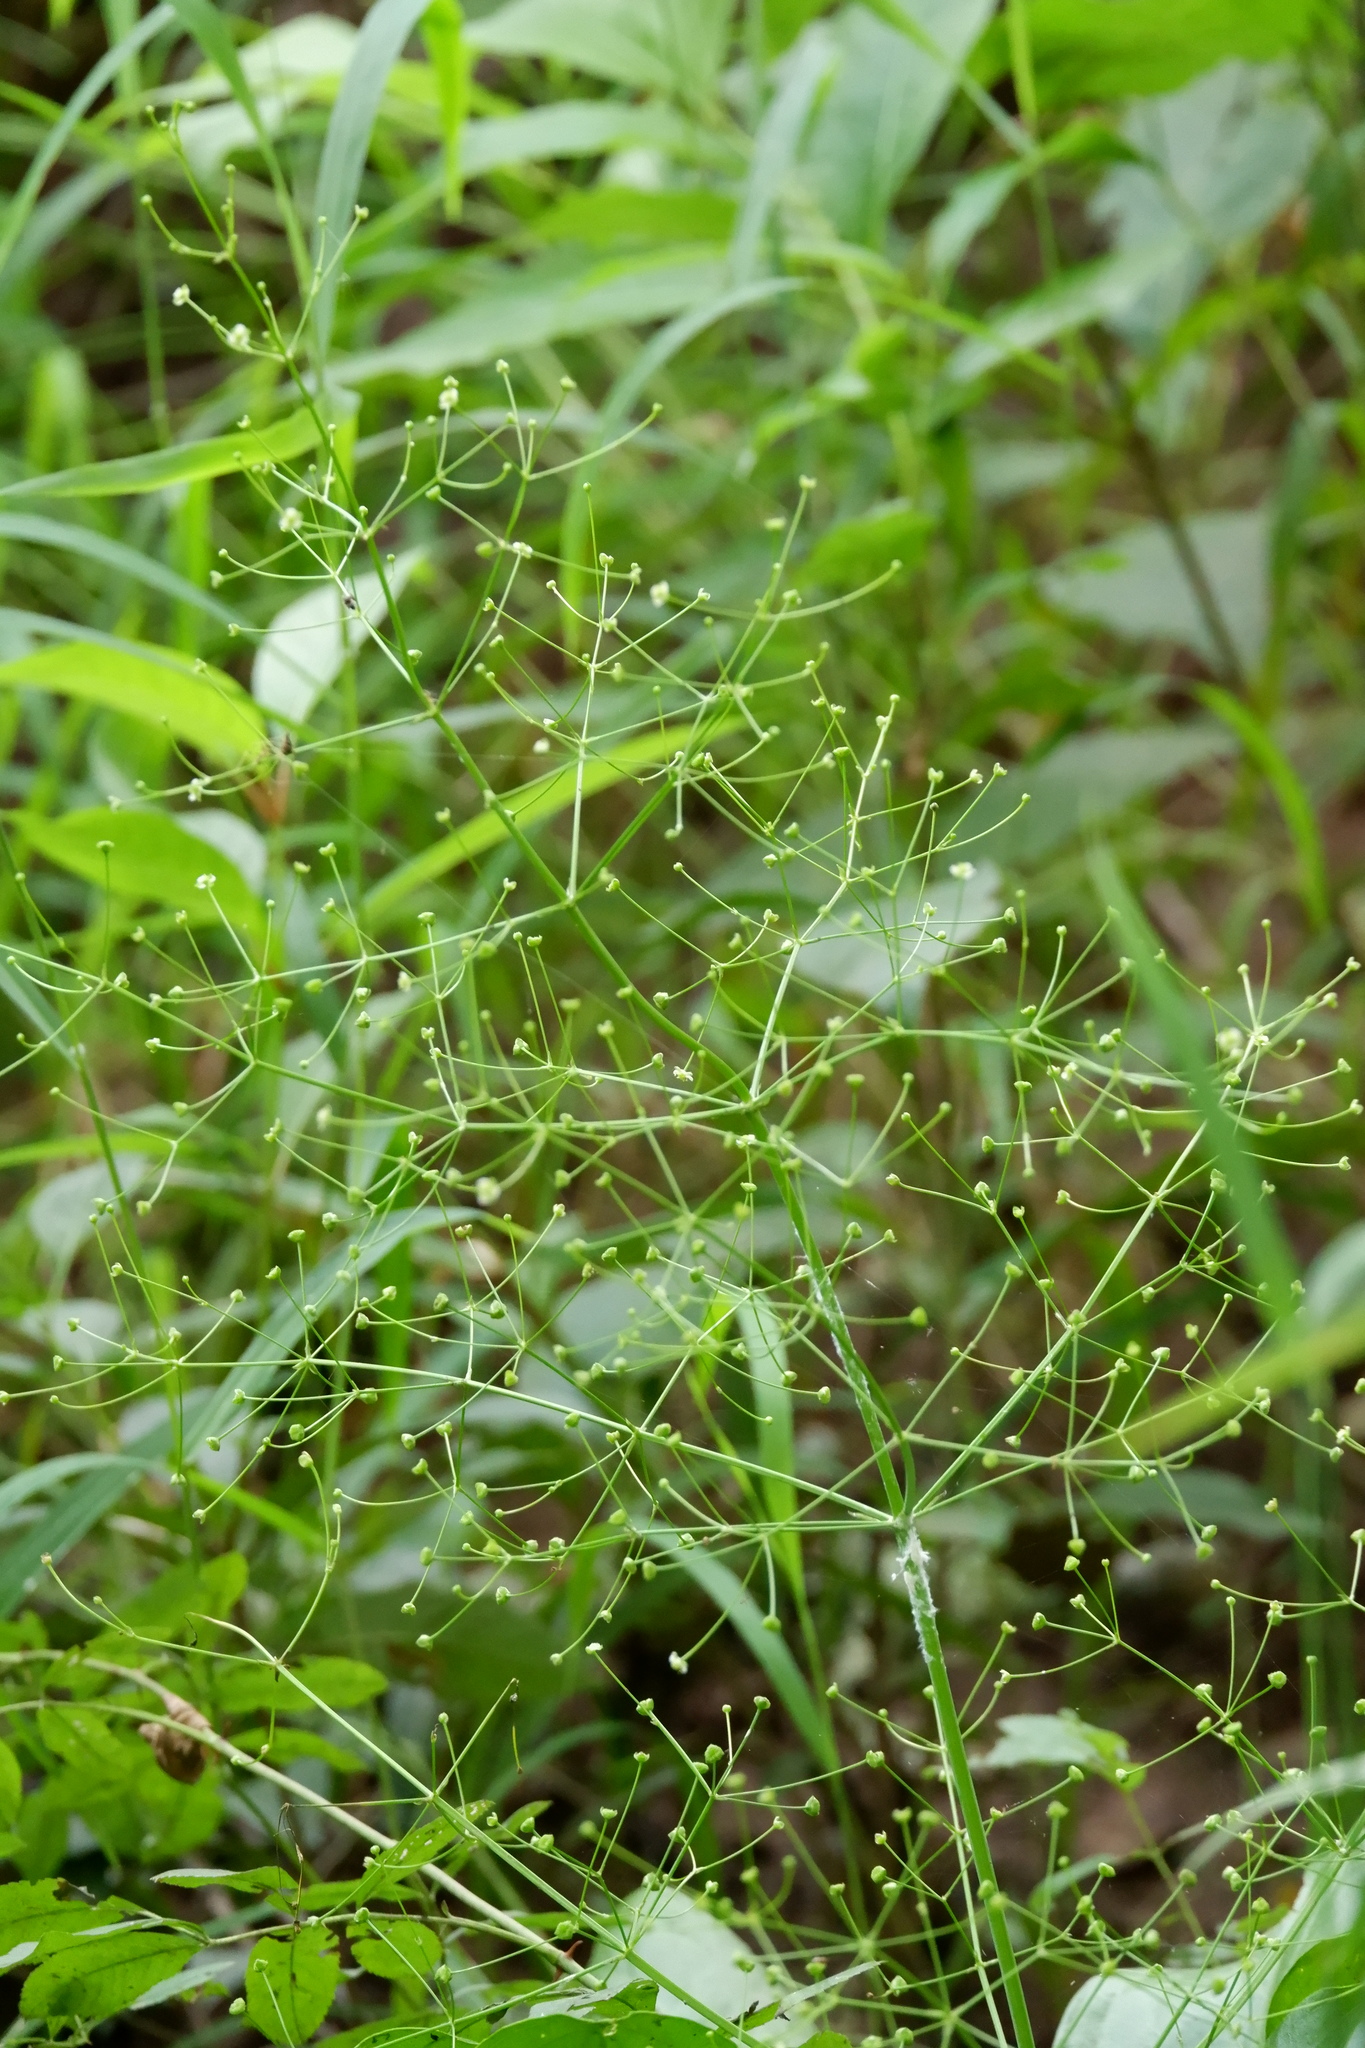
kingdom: Plantae
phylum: Tracheophyta
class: Liliopsida
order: Alismatales
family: Alismataceae
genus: Alisma
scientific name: Alisma subcordatum
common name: Southern water-plantain
